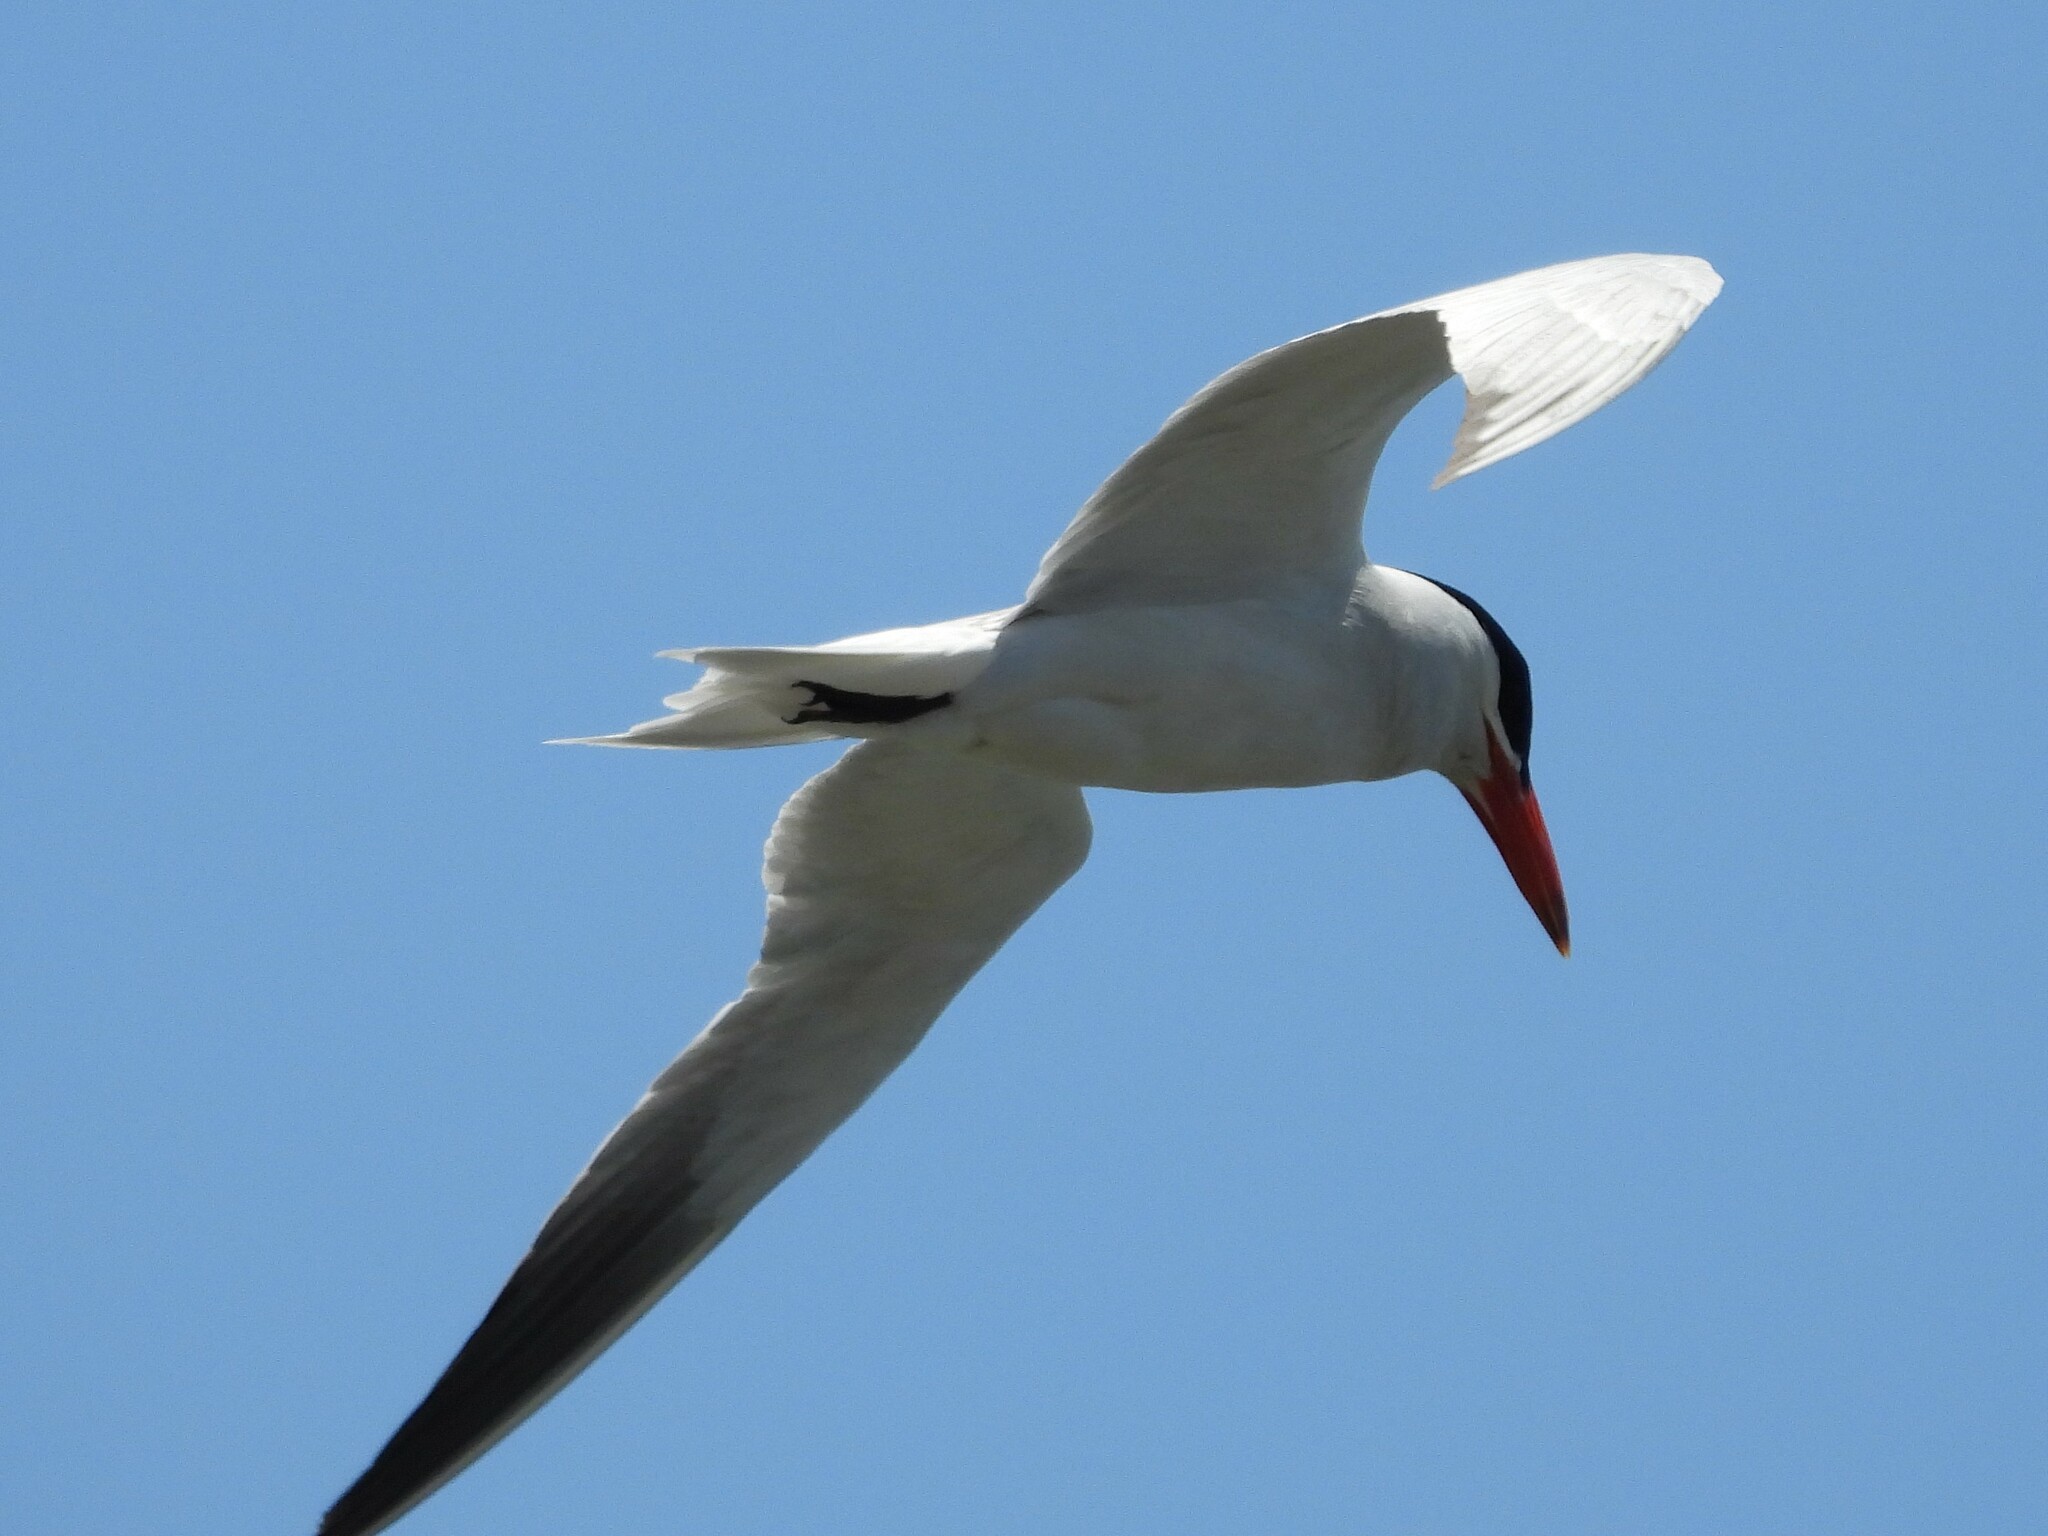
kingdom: Animalia
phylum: Chordata
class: Aves
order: Charadriiformes
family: Laridae
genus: Hydroprogne
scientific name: Hydroprogne caspia
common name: Caspian tern
